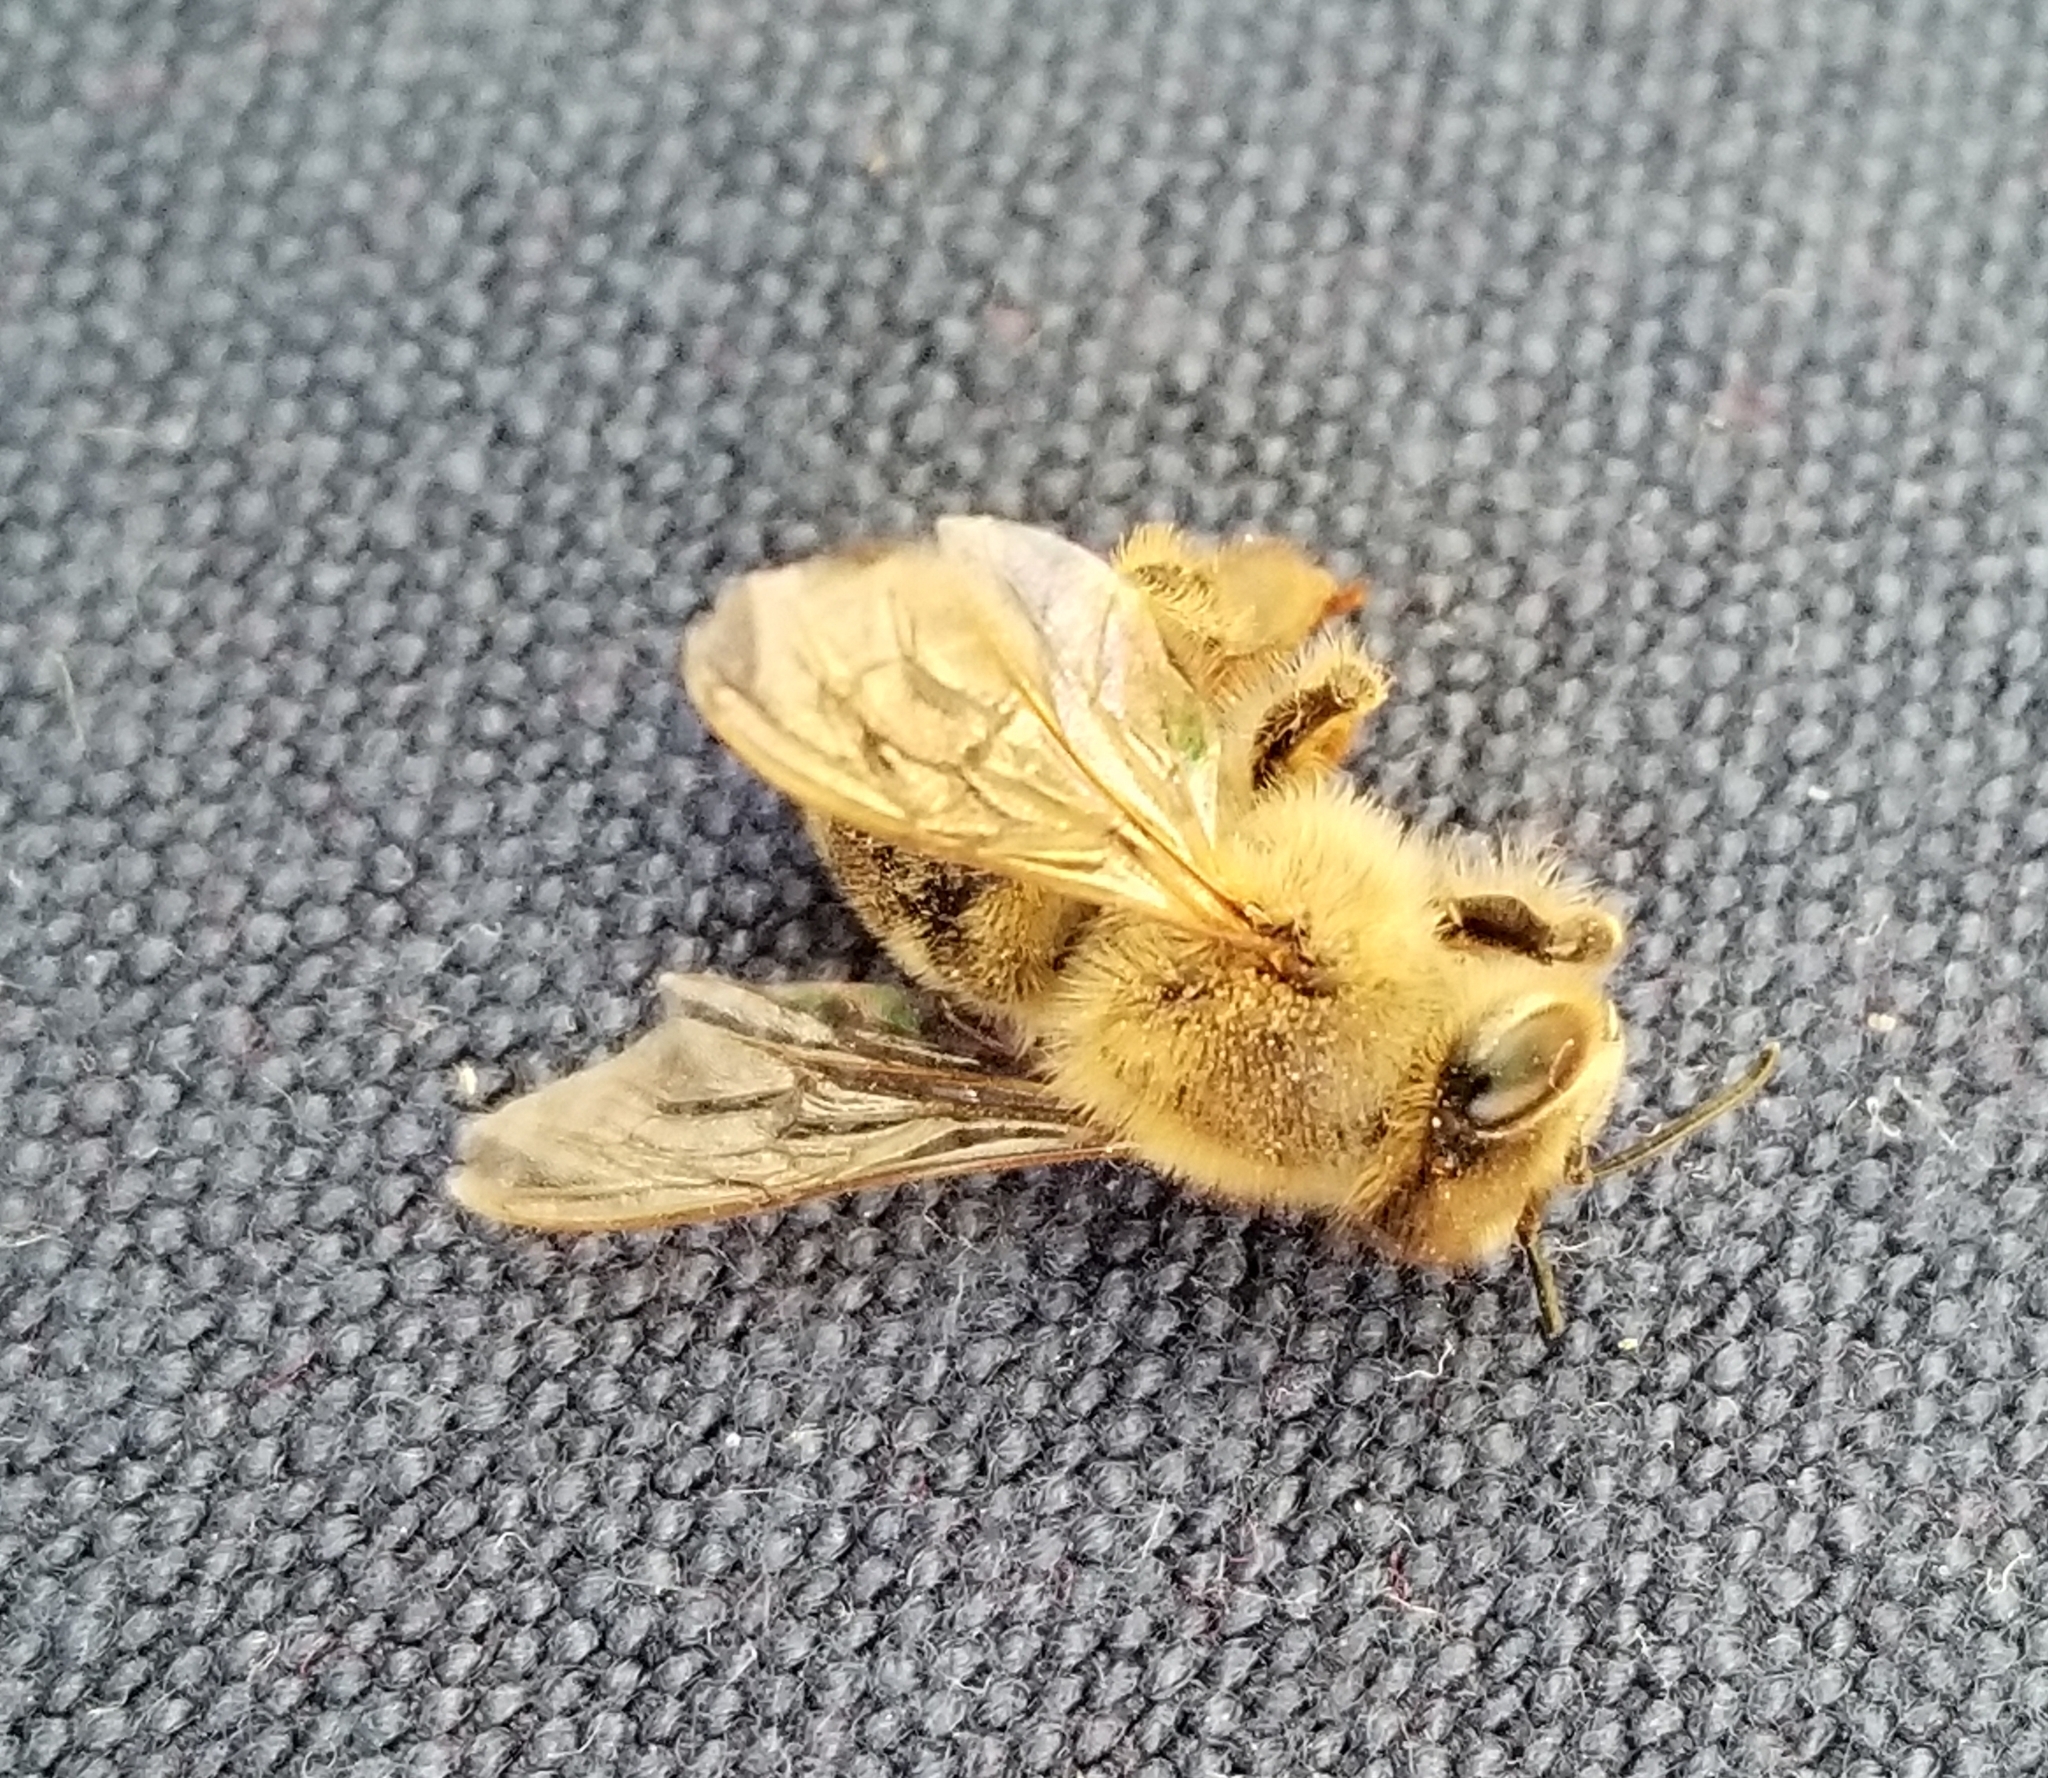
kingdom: Animalia
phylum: Arthropoda
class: Insecta
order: Hymenoptera
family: Apidae
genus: Apis
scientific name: Apis mellifera
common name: Honey bee
